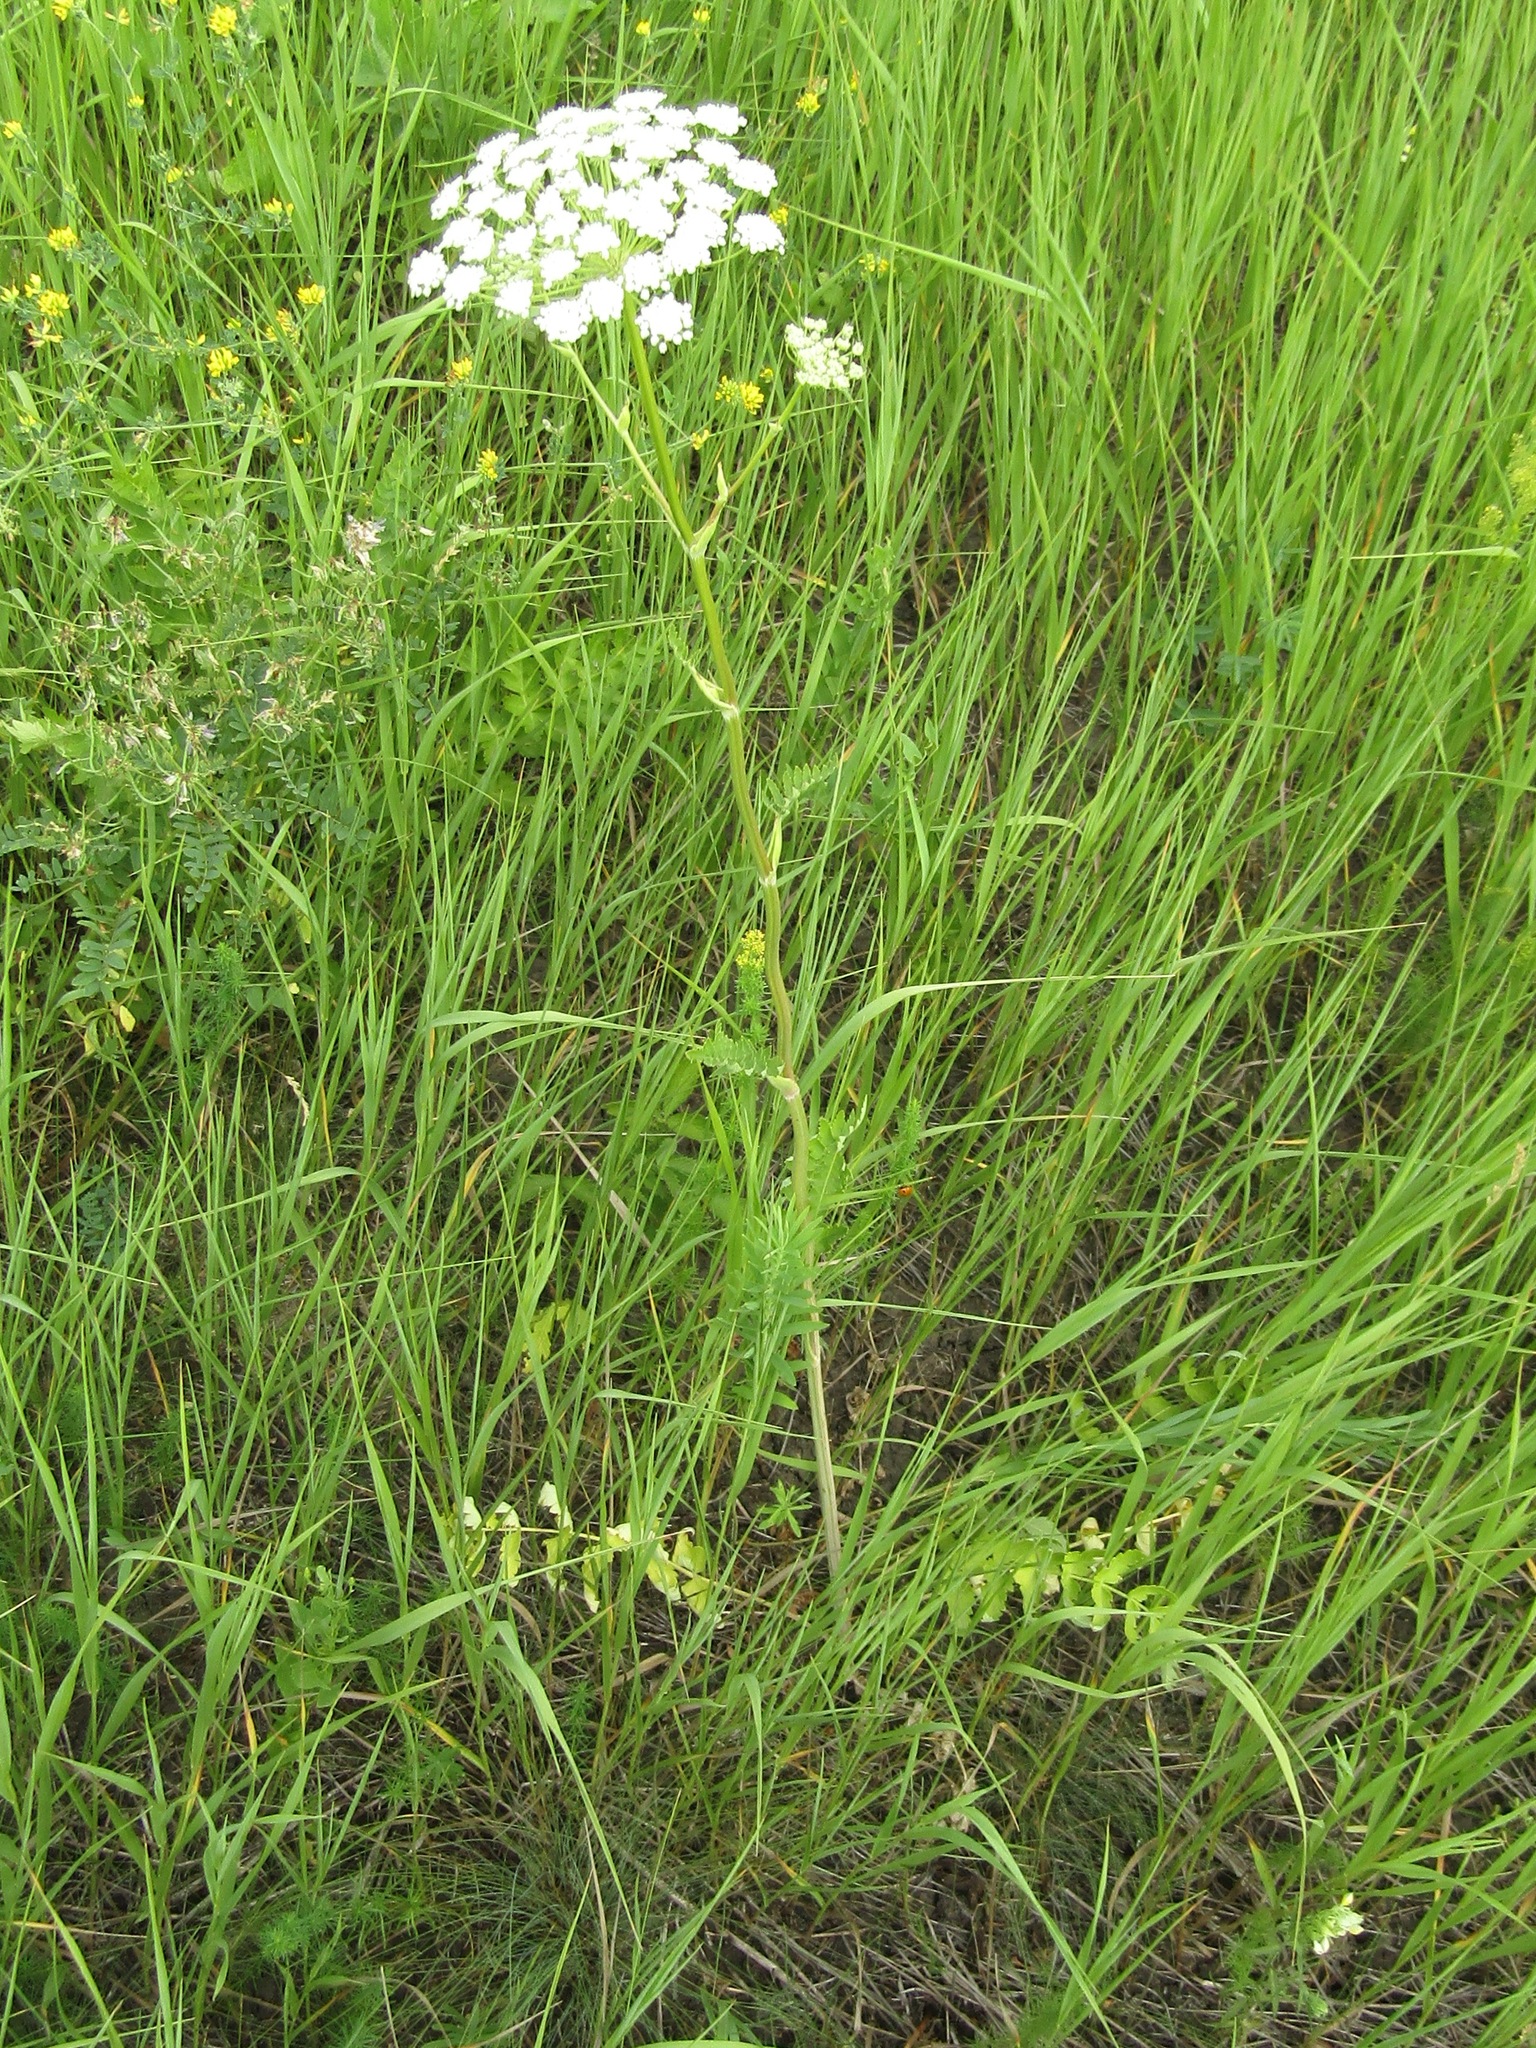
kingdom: Plantae
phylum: Tracheophyta
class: Magnoliopsida
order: Apiales
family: Apiaceae
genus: Seseli
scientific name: Seseli libanotis
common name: Mooncarrot
